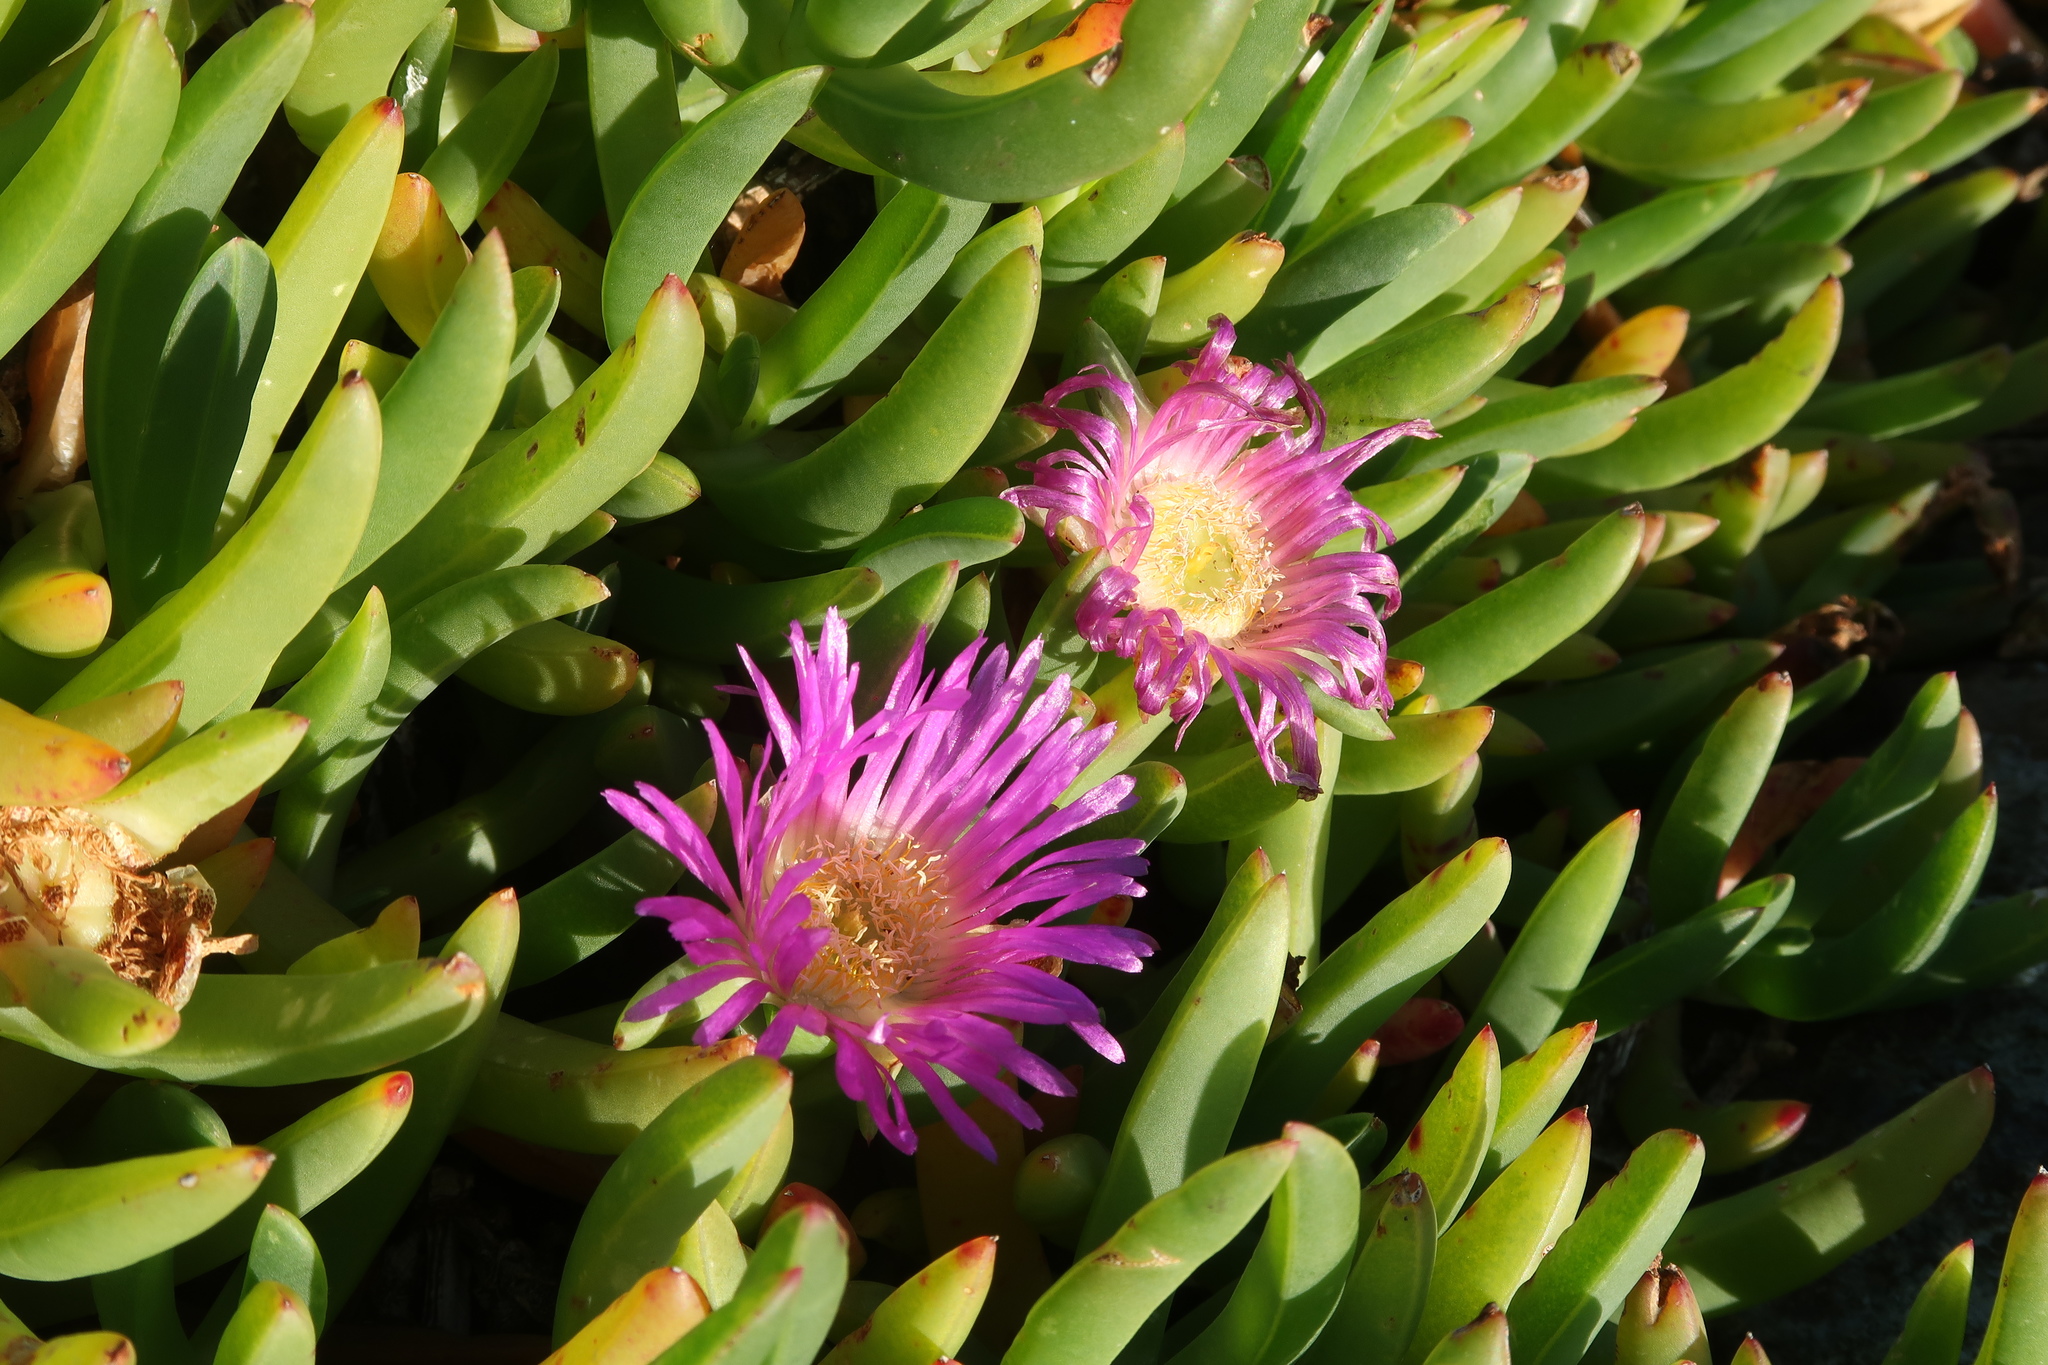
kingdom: Plantae
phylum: Tracheophyta
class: Magnoliopsida
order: Caryophyllales
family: Aizoaceae
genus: Carpobrotus
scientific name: Carpobrotus rossii
